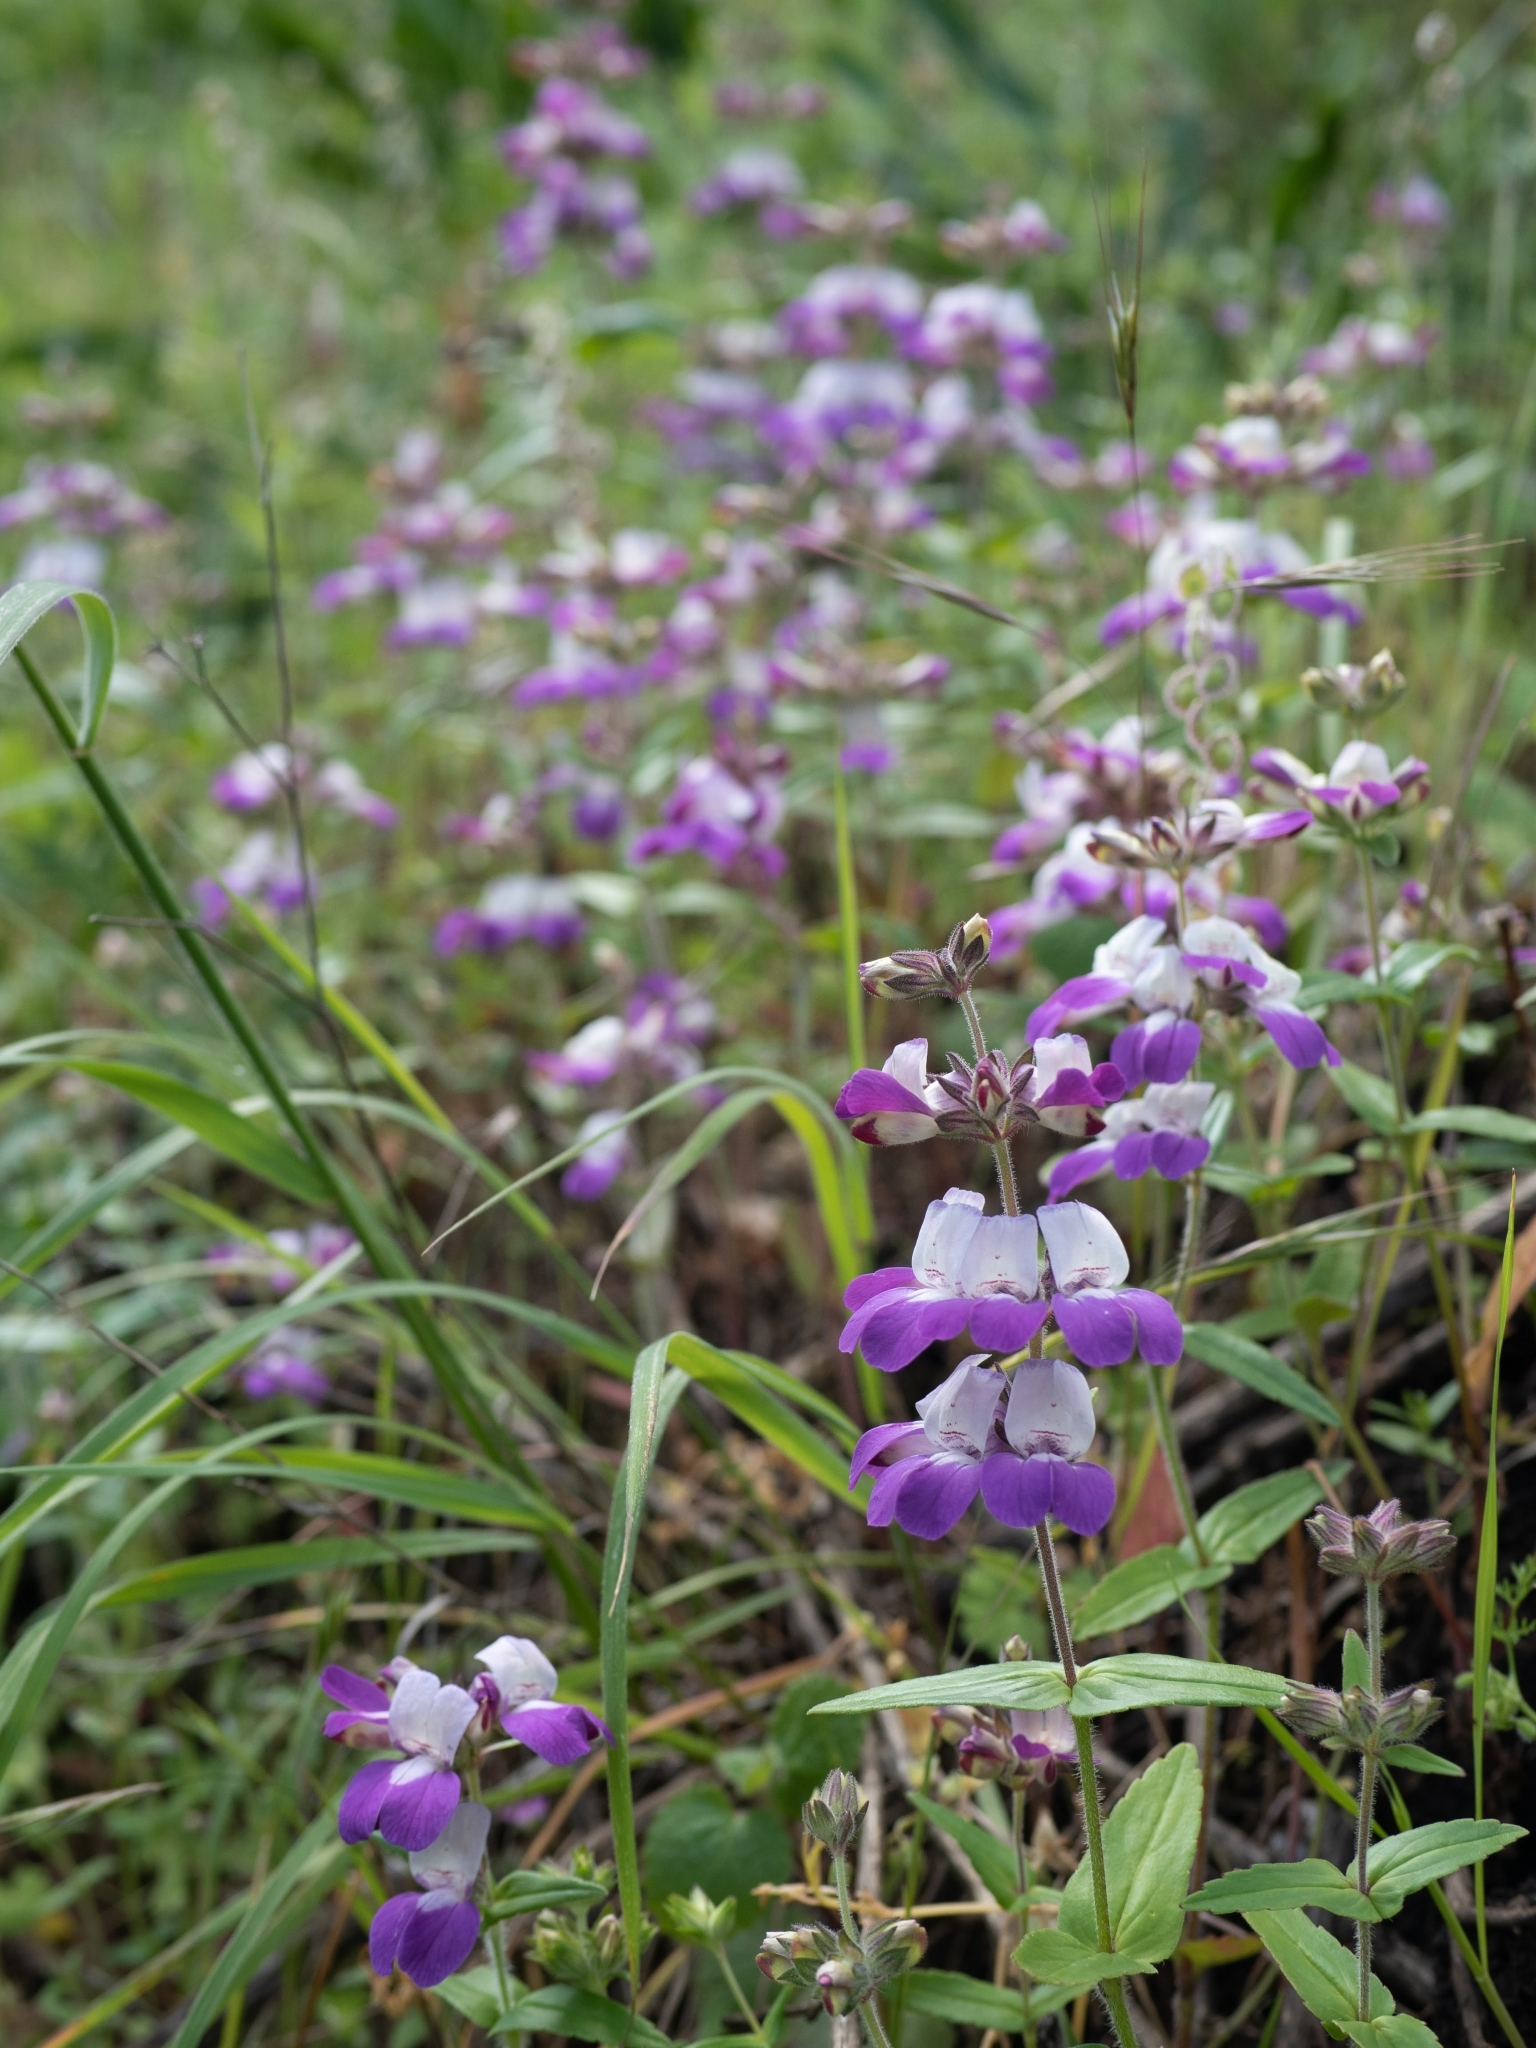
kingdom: Plantae
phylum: Tracheophyta
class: Magnoliopsida
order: Lamiales
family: Plantaginaceae
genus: Collinsia
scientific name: Collinsia heterophylla
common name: Chinese-houses
